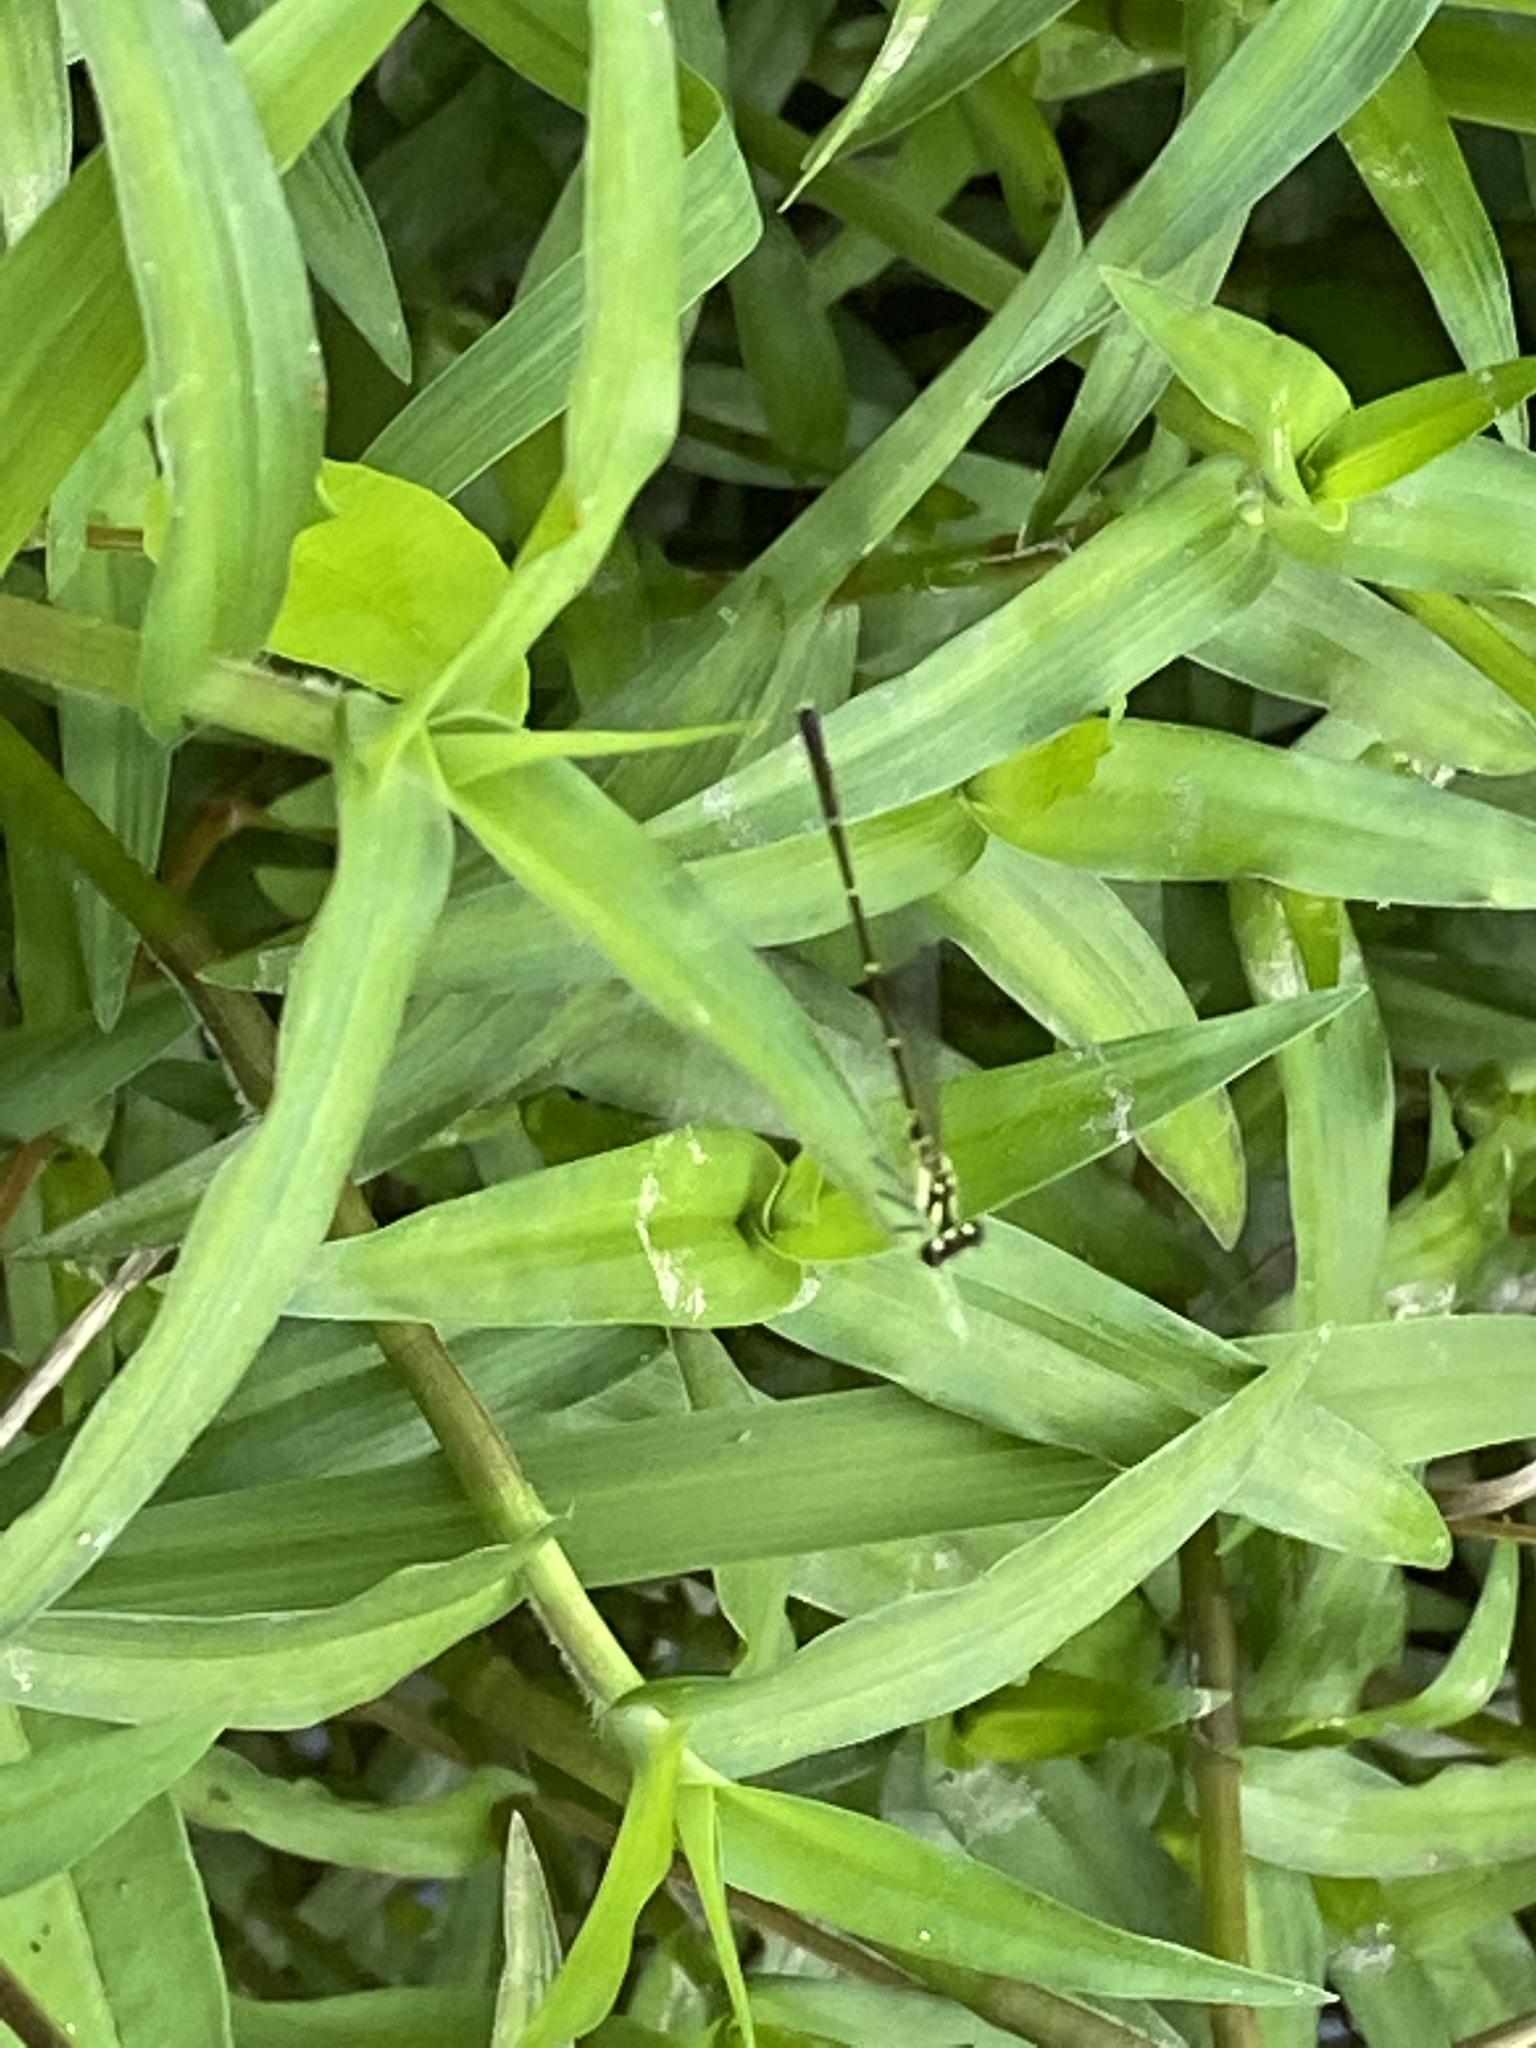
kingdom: Animalia
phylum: Arthropoda
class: Insecta
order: Odonata
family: Coenagrionidae
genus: Ischnura
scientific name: Ischnura posita
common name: Fragile forktail
